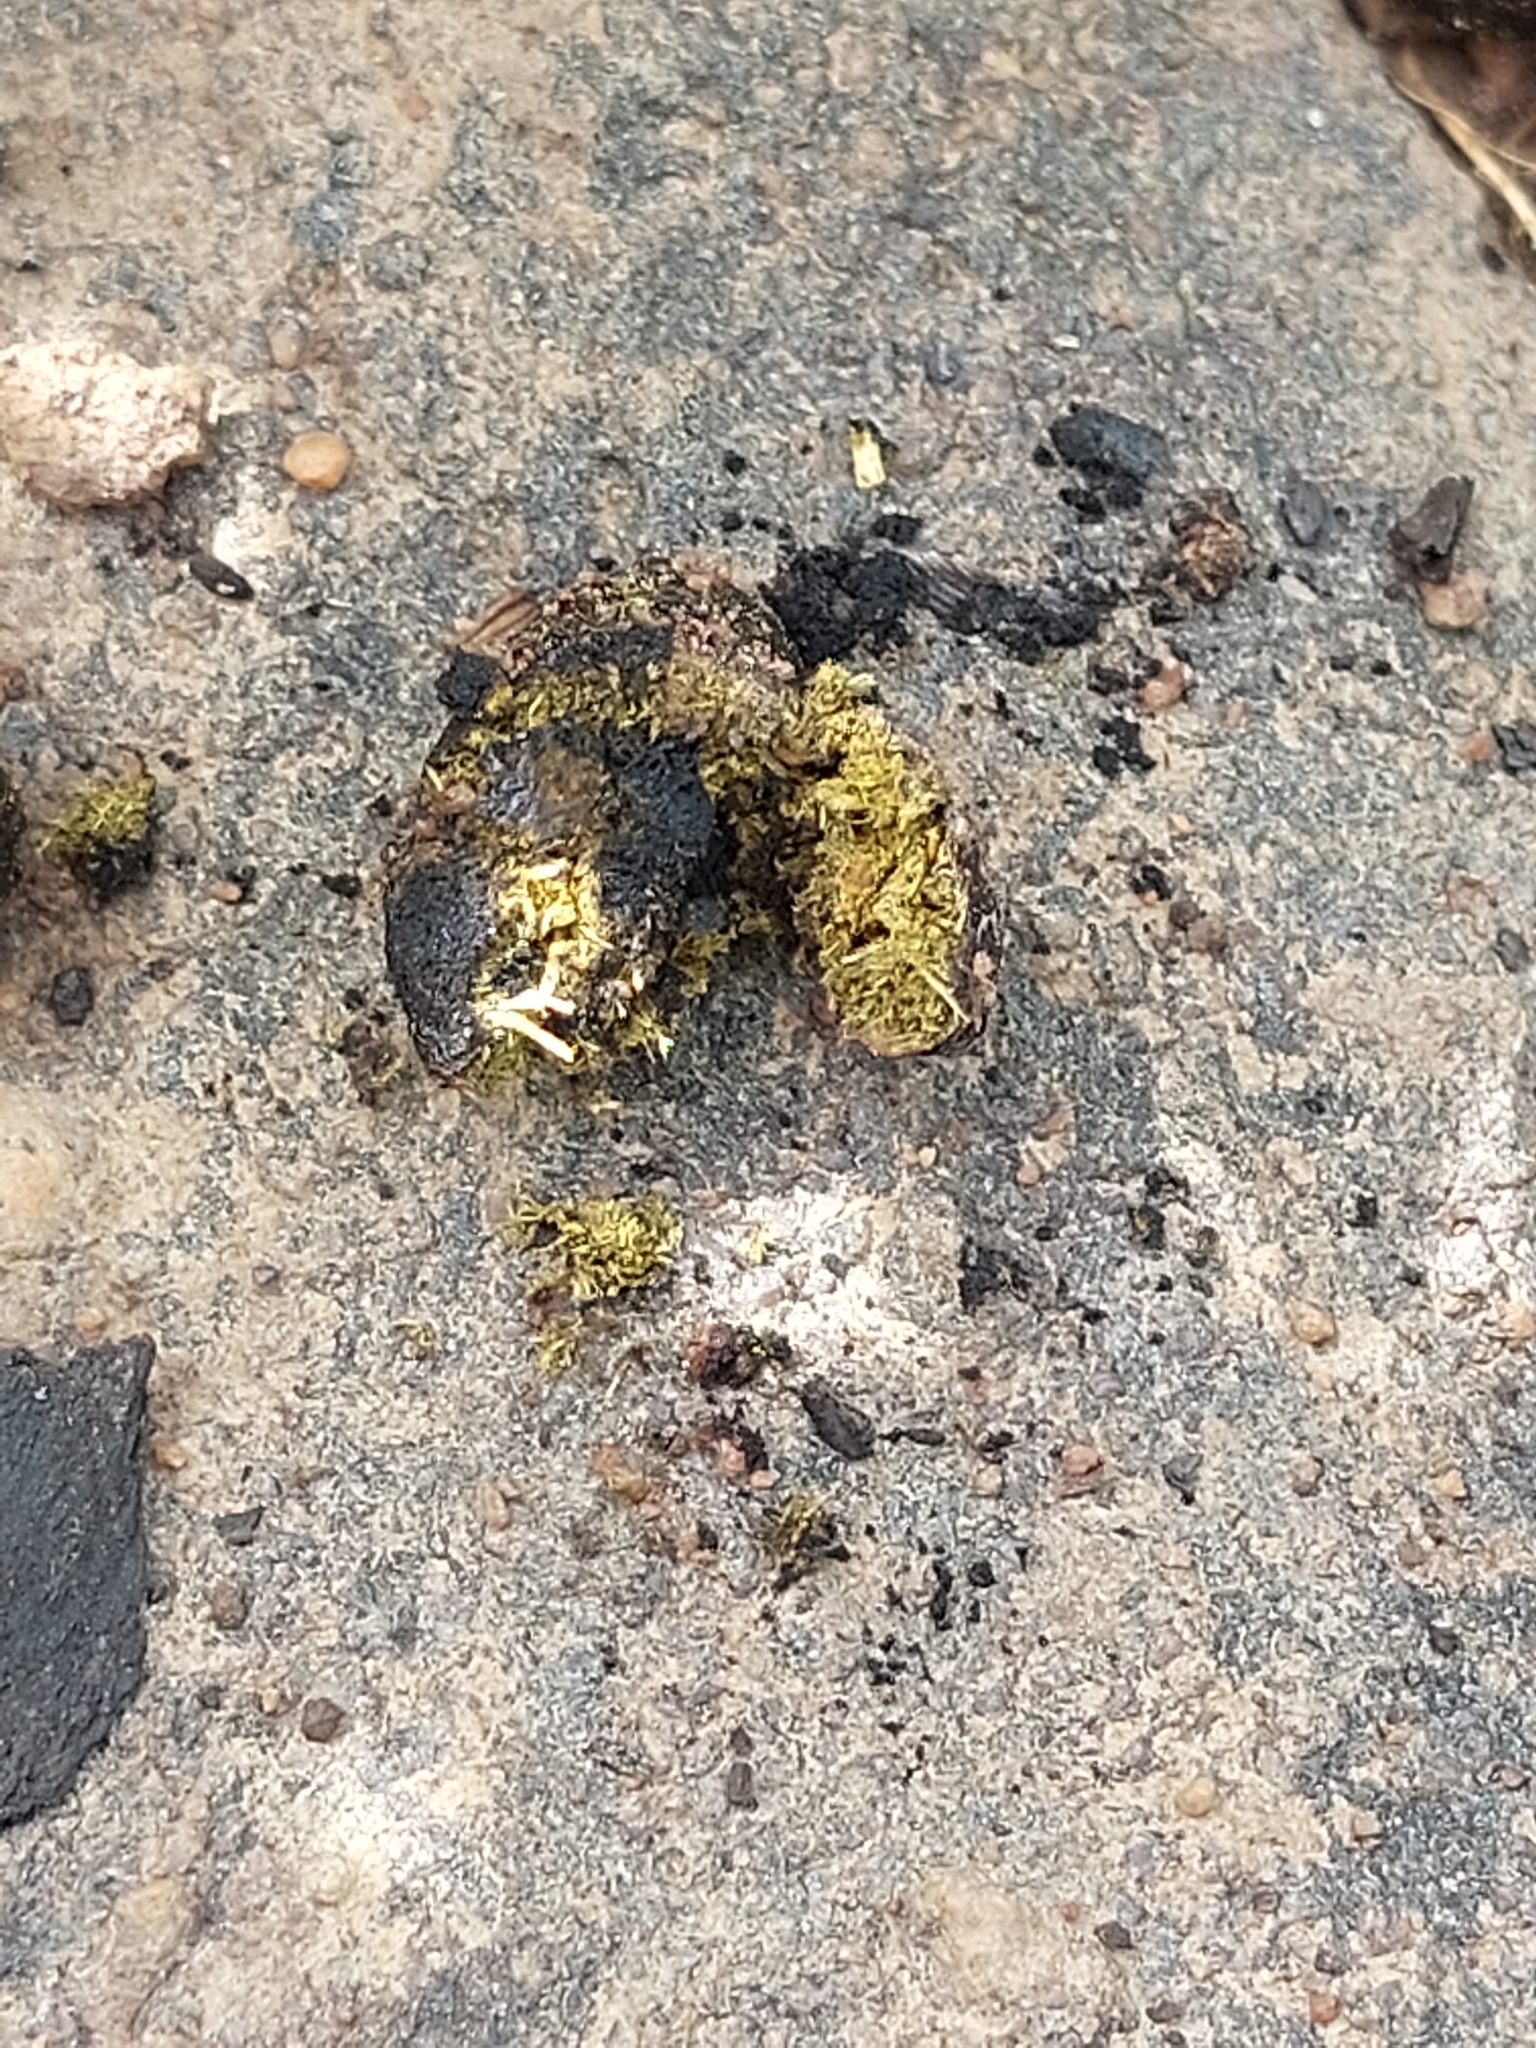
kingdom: Animalia
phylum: Chordata
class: Mammalia
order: Artiodactyla
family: Bovidae
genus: Sylvicapra
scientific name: Sylvicapra grimmia
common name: Bush duiker
